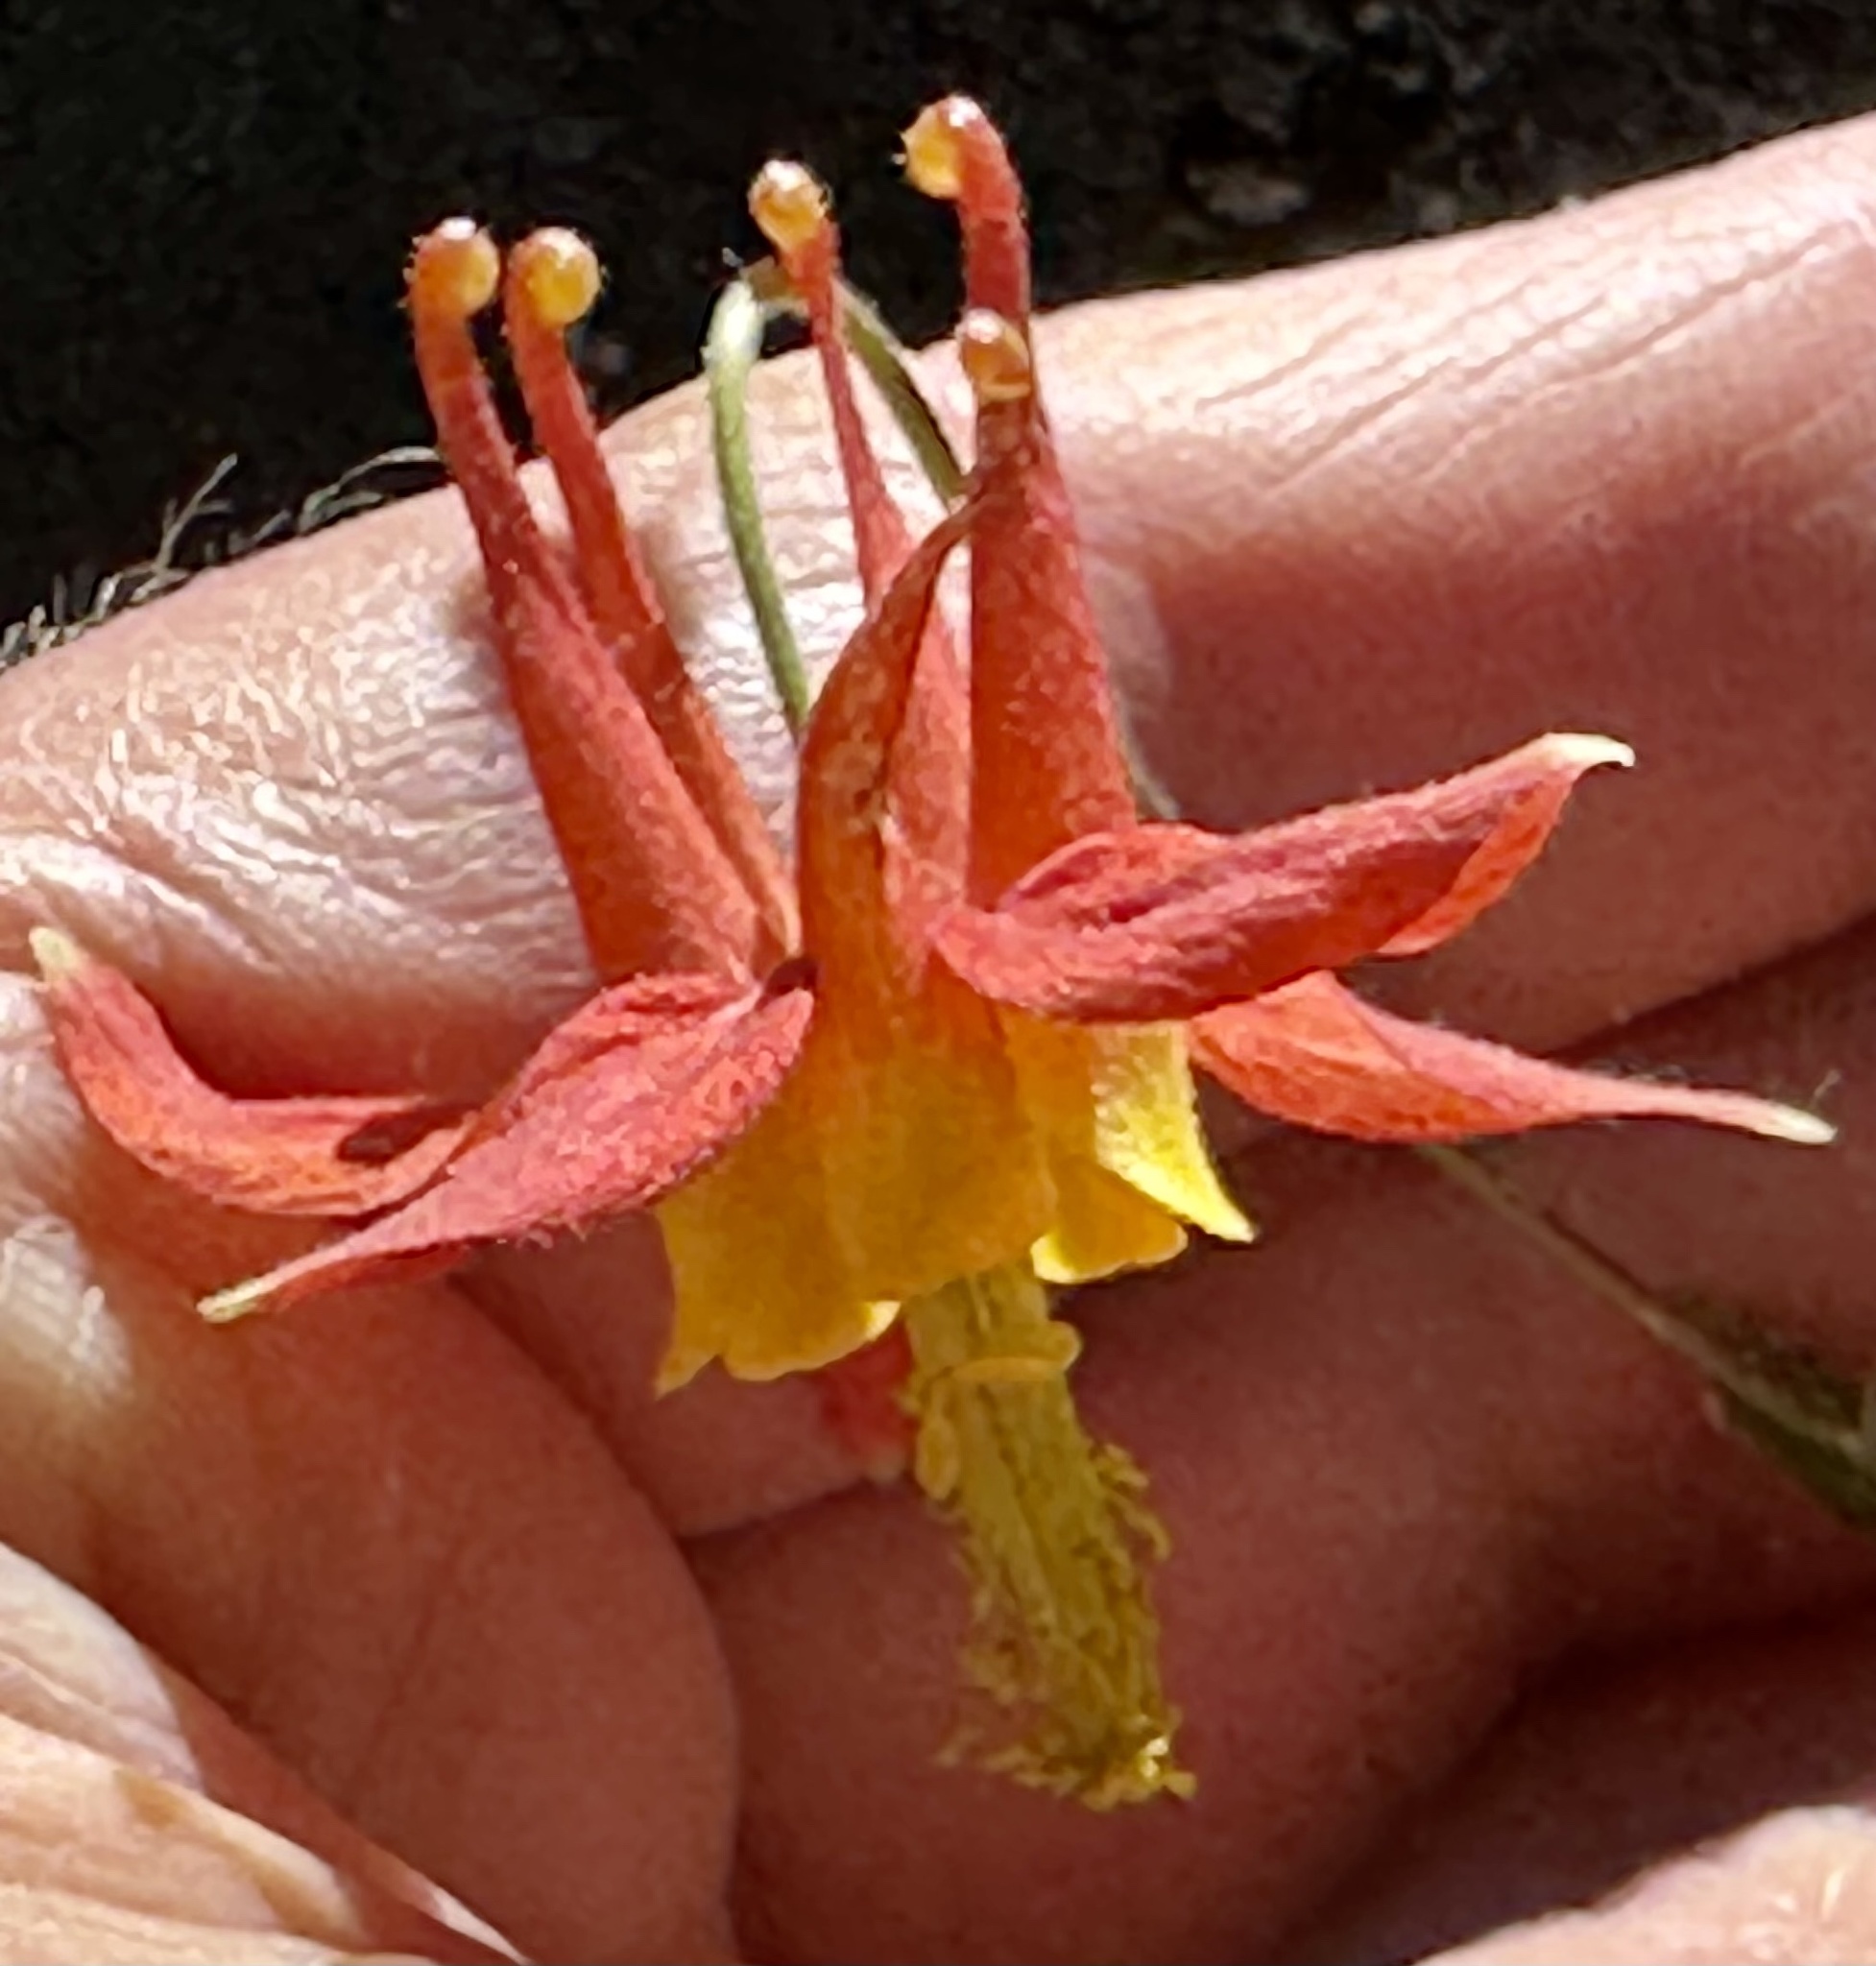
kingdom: Plantae
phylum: Tracheophyta
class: Magnoliopsida
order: Ranunculales
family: Ranunculaceae
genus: Aquilegia
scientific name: Aquilegia formosa
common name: Sitka columbine
